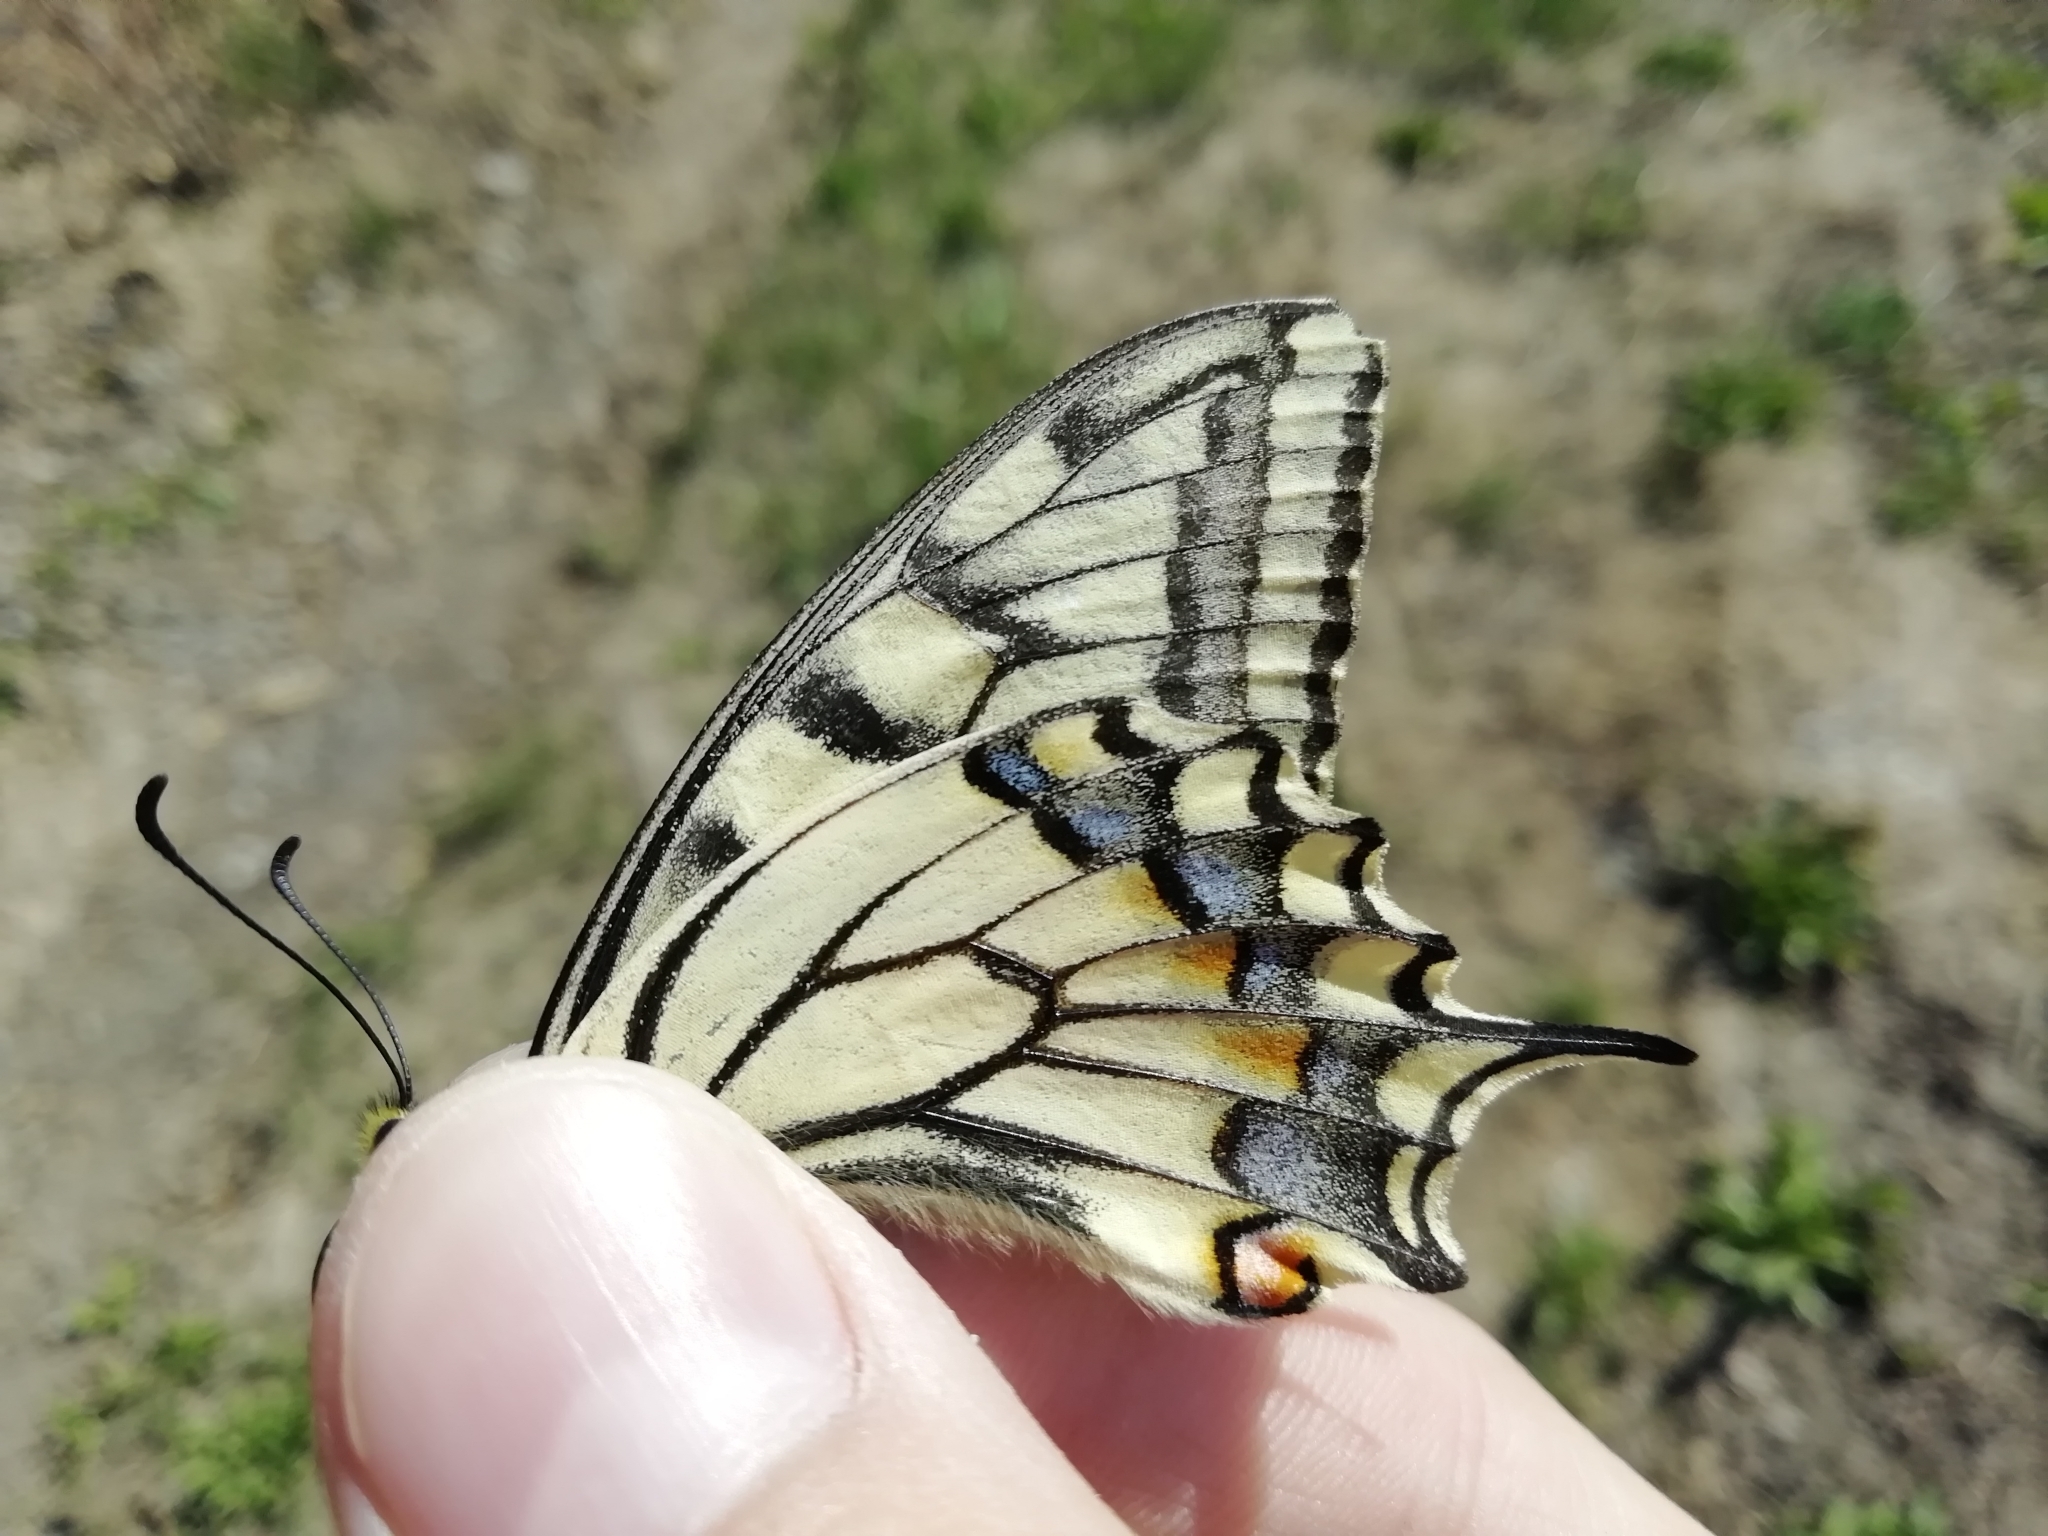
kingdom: Animalia
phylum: Arthropoda
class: Insecta
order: Lepidoptera
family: Papilionidae
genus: Papilio
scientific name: Papilio machaon
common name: Swallowtail
